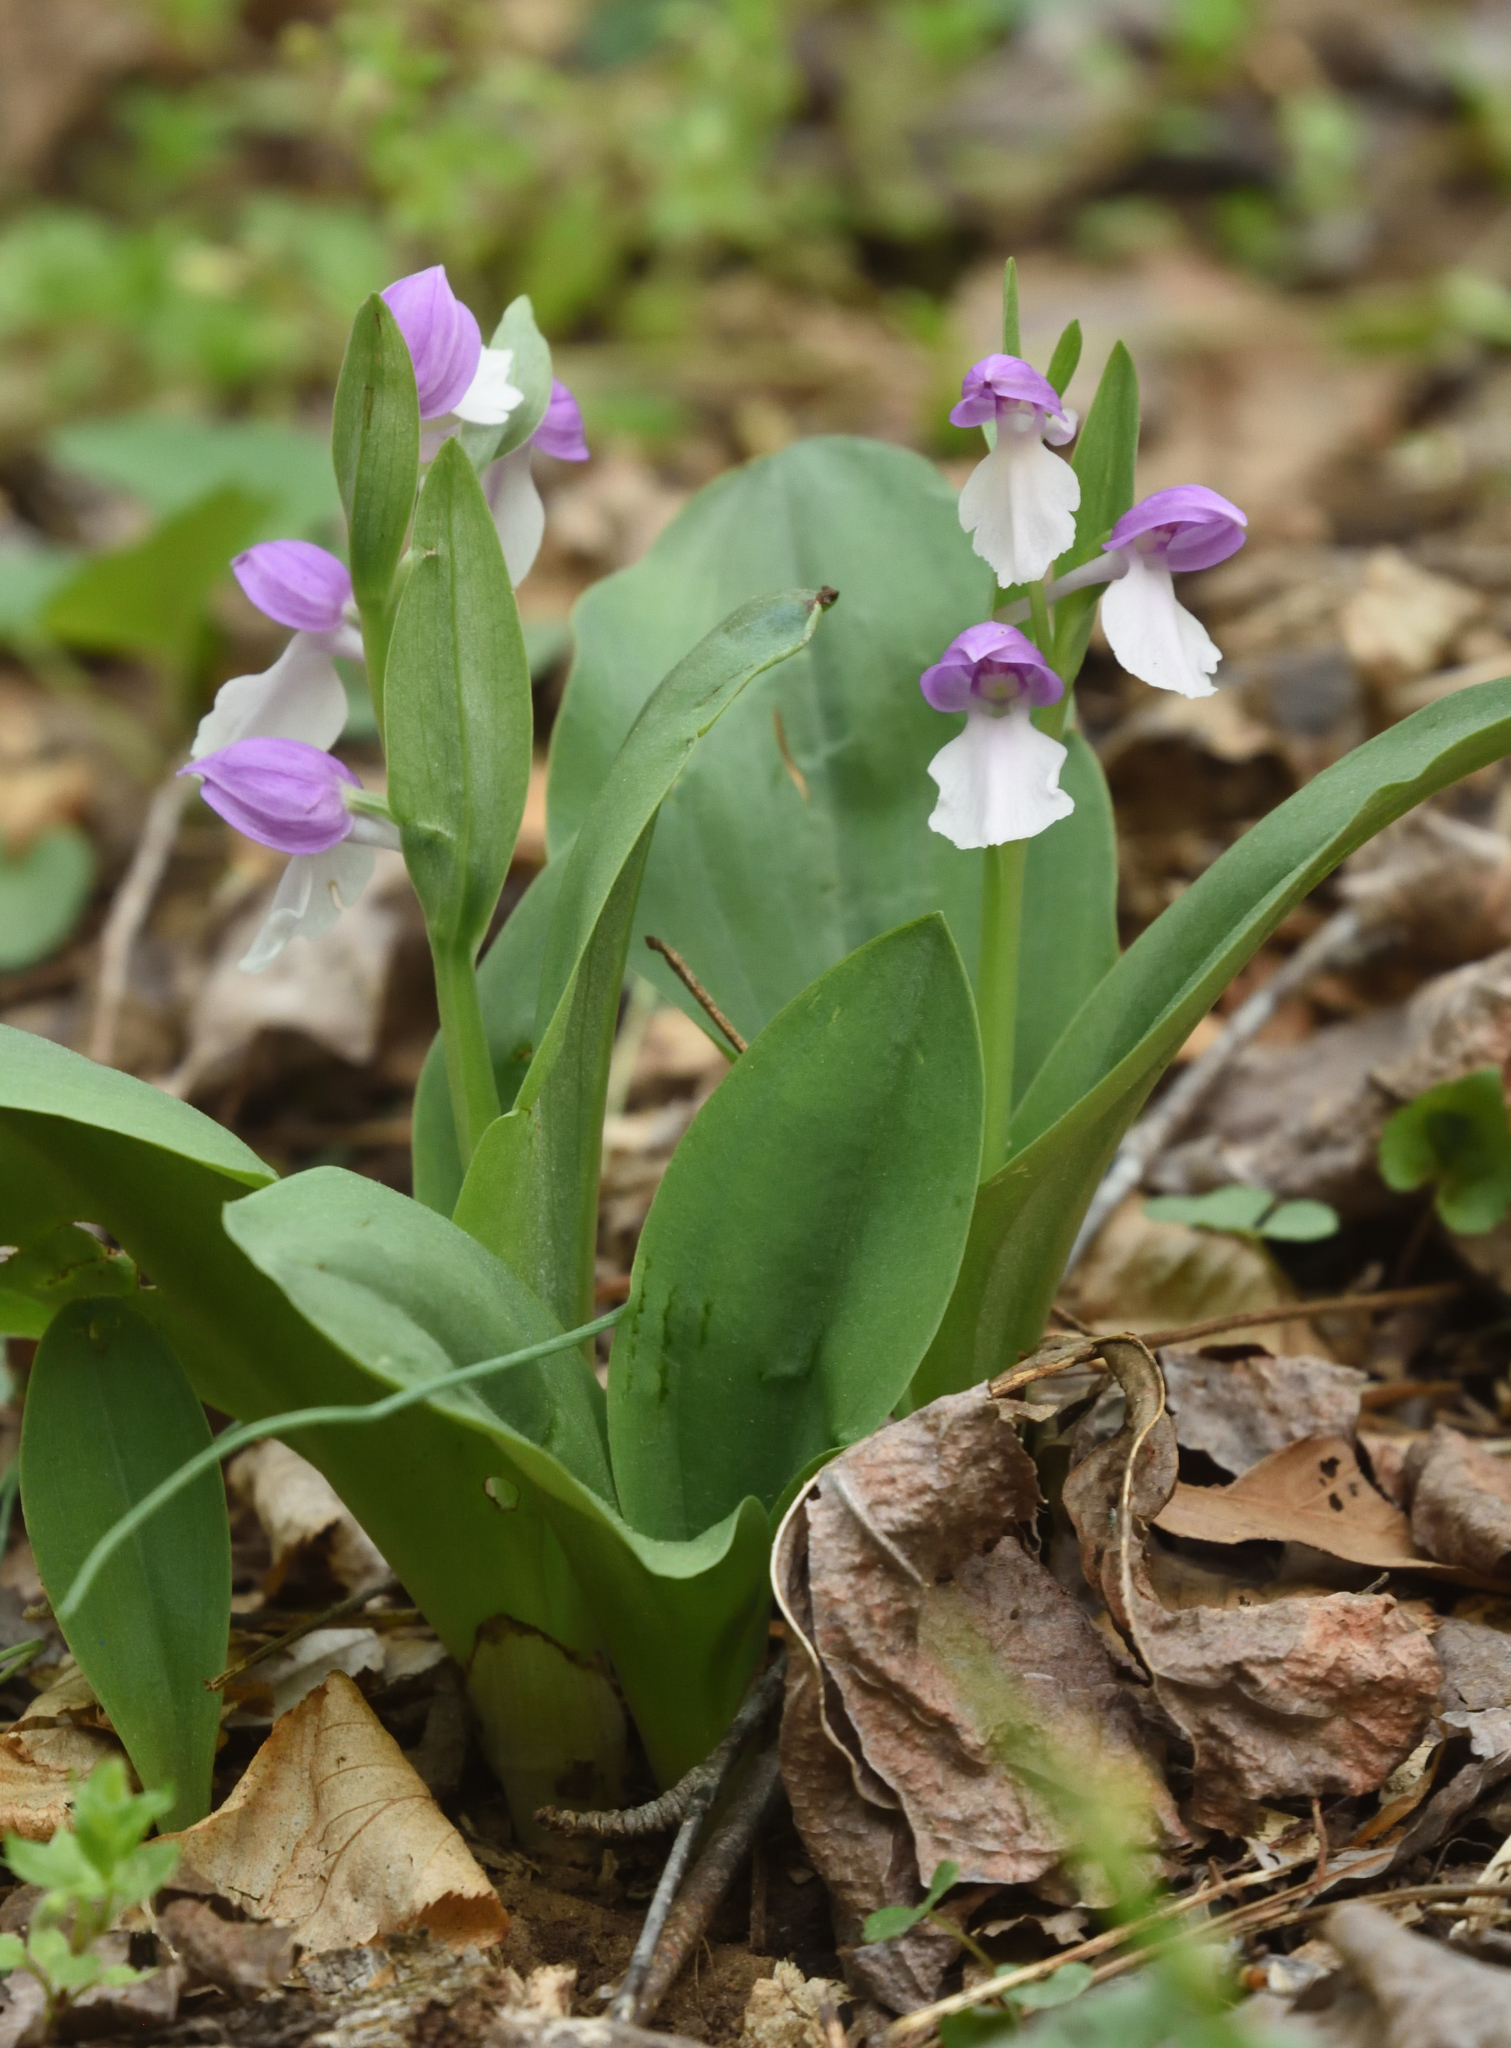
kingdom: Plantae
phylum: Tracheophyta
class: Liliopsida
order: Asparagales
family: Orchidaceae
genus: Galearis
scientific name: Galearis spectabilis
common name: Purple-hooded orchis
